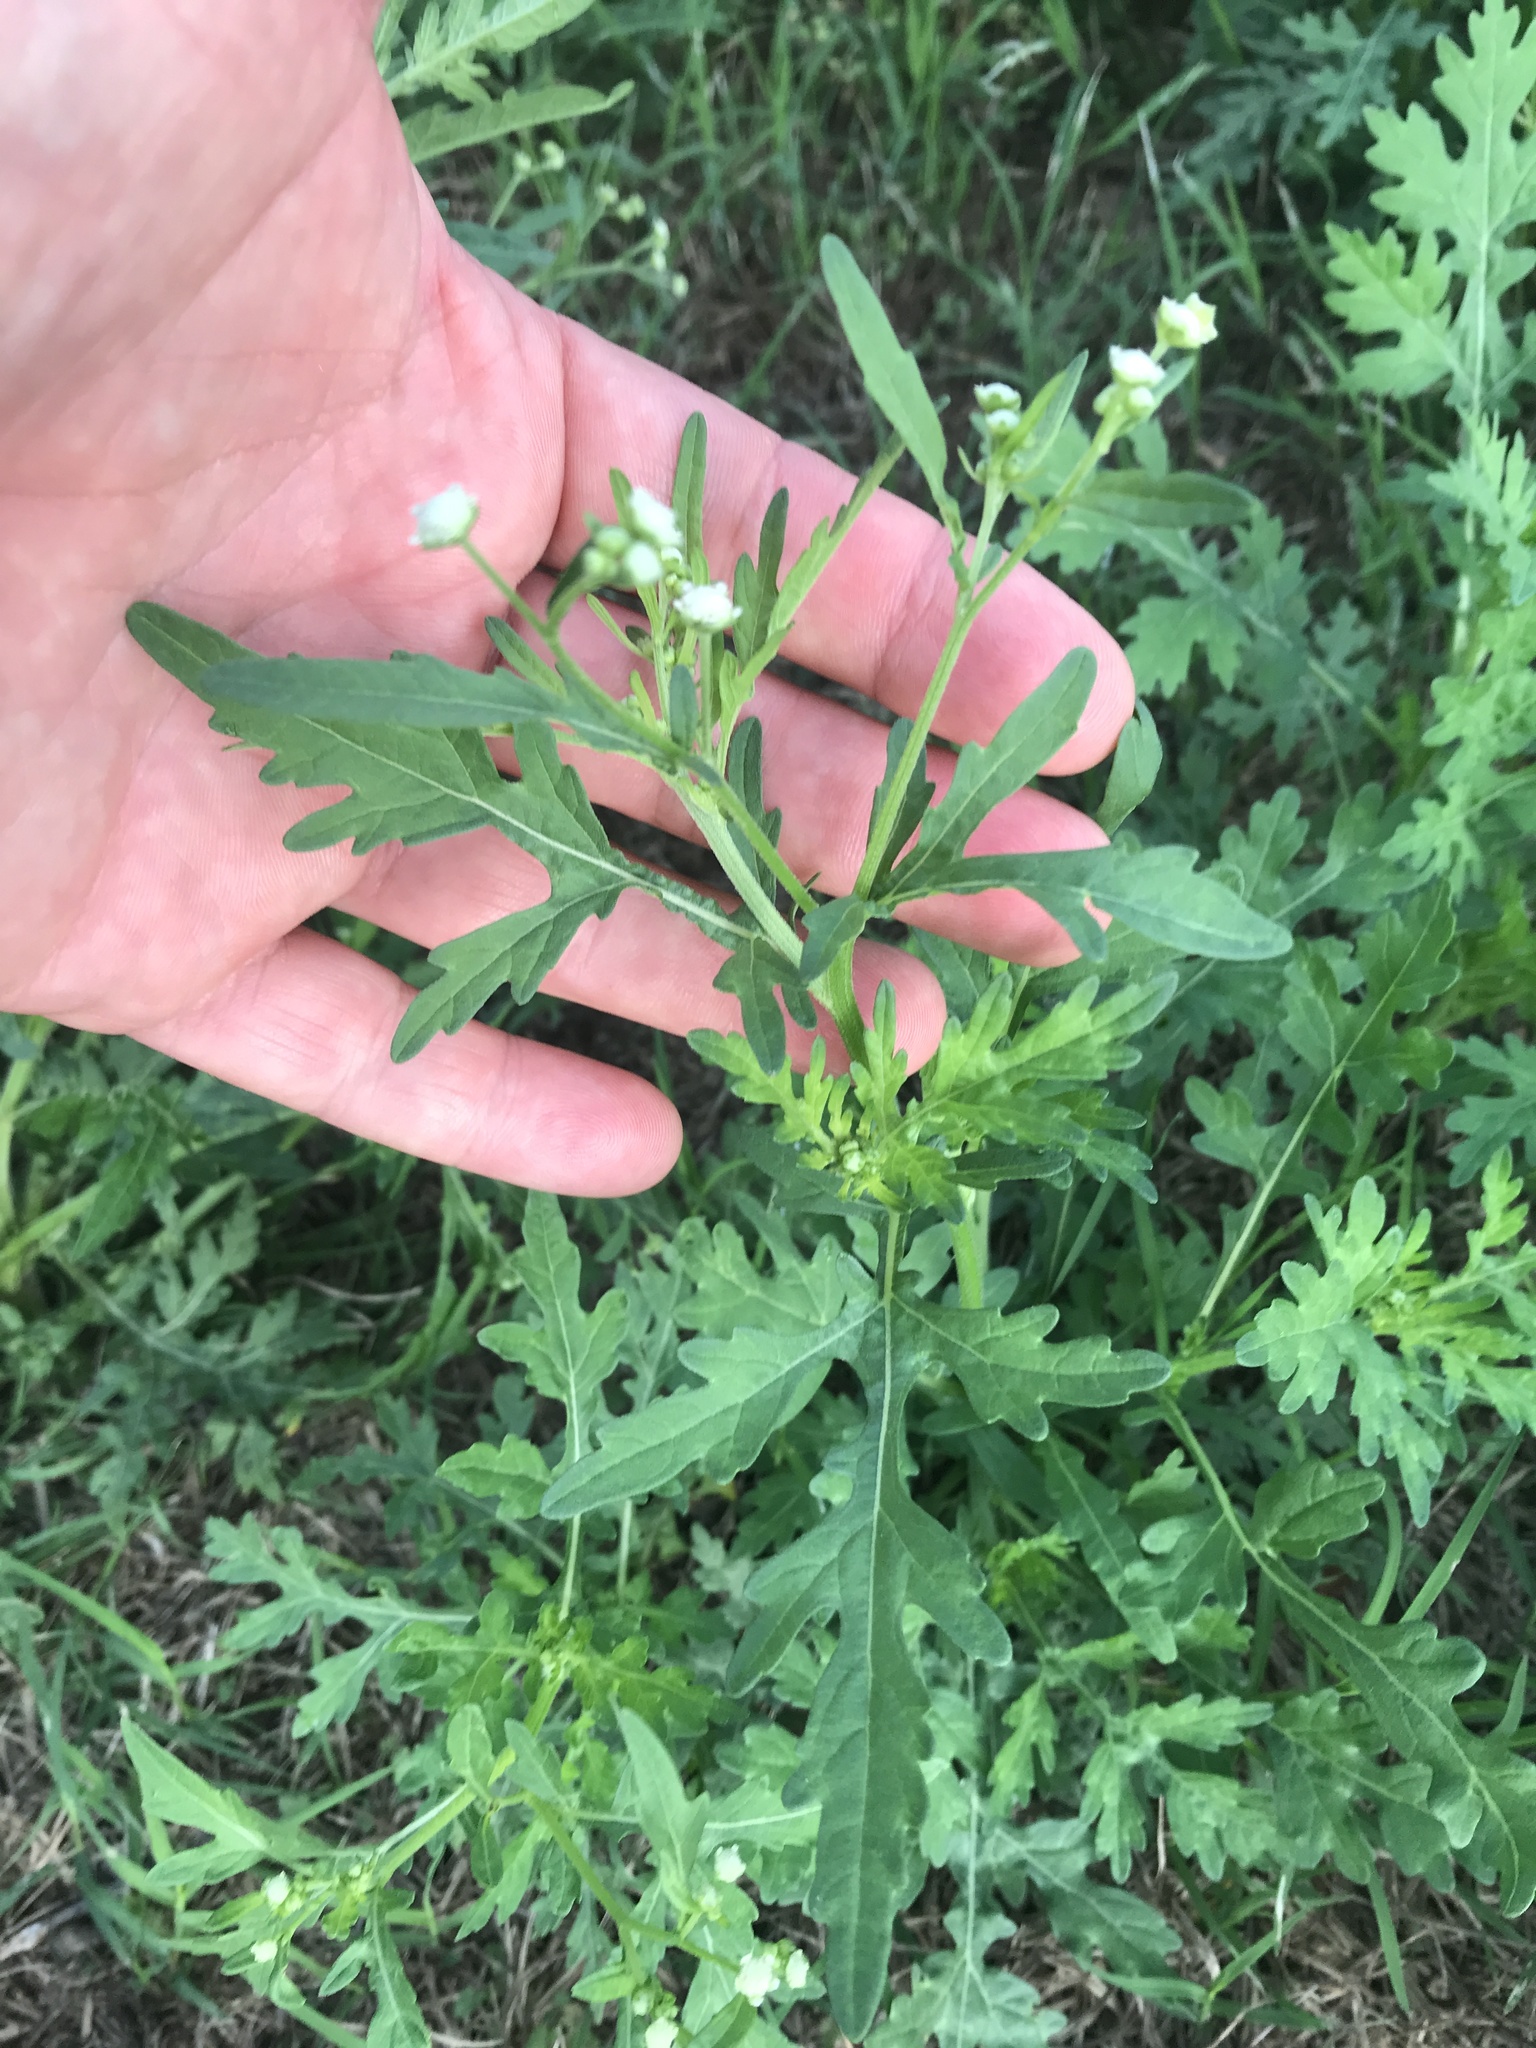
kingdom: Plantae
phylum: Tracheophyta
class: Magnoliopsida
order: Asterales
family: Asteraceae
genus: Parthenium
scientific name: Parthenium hysterophorus
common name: Santa maria feverfew
